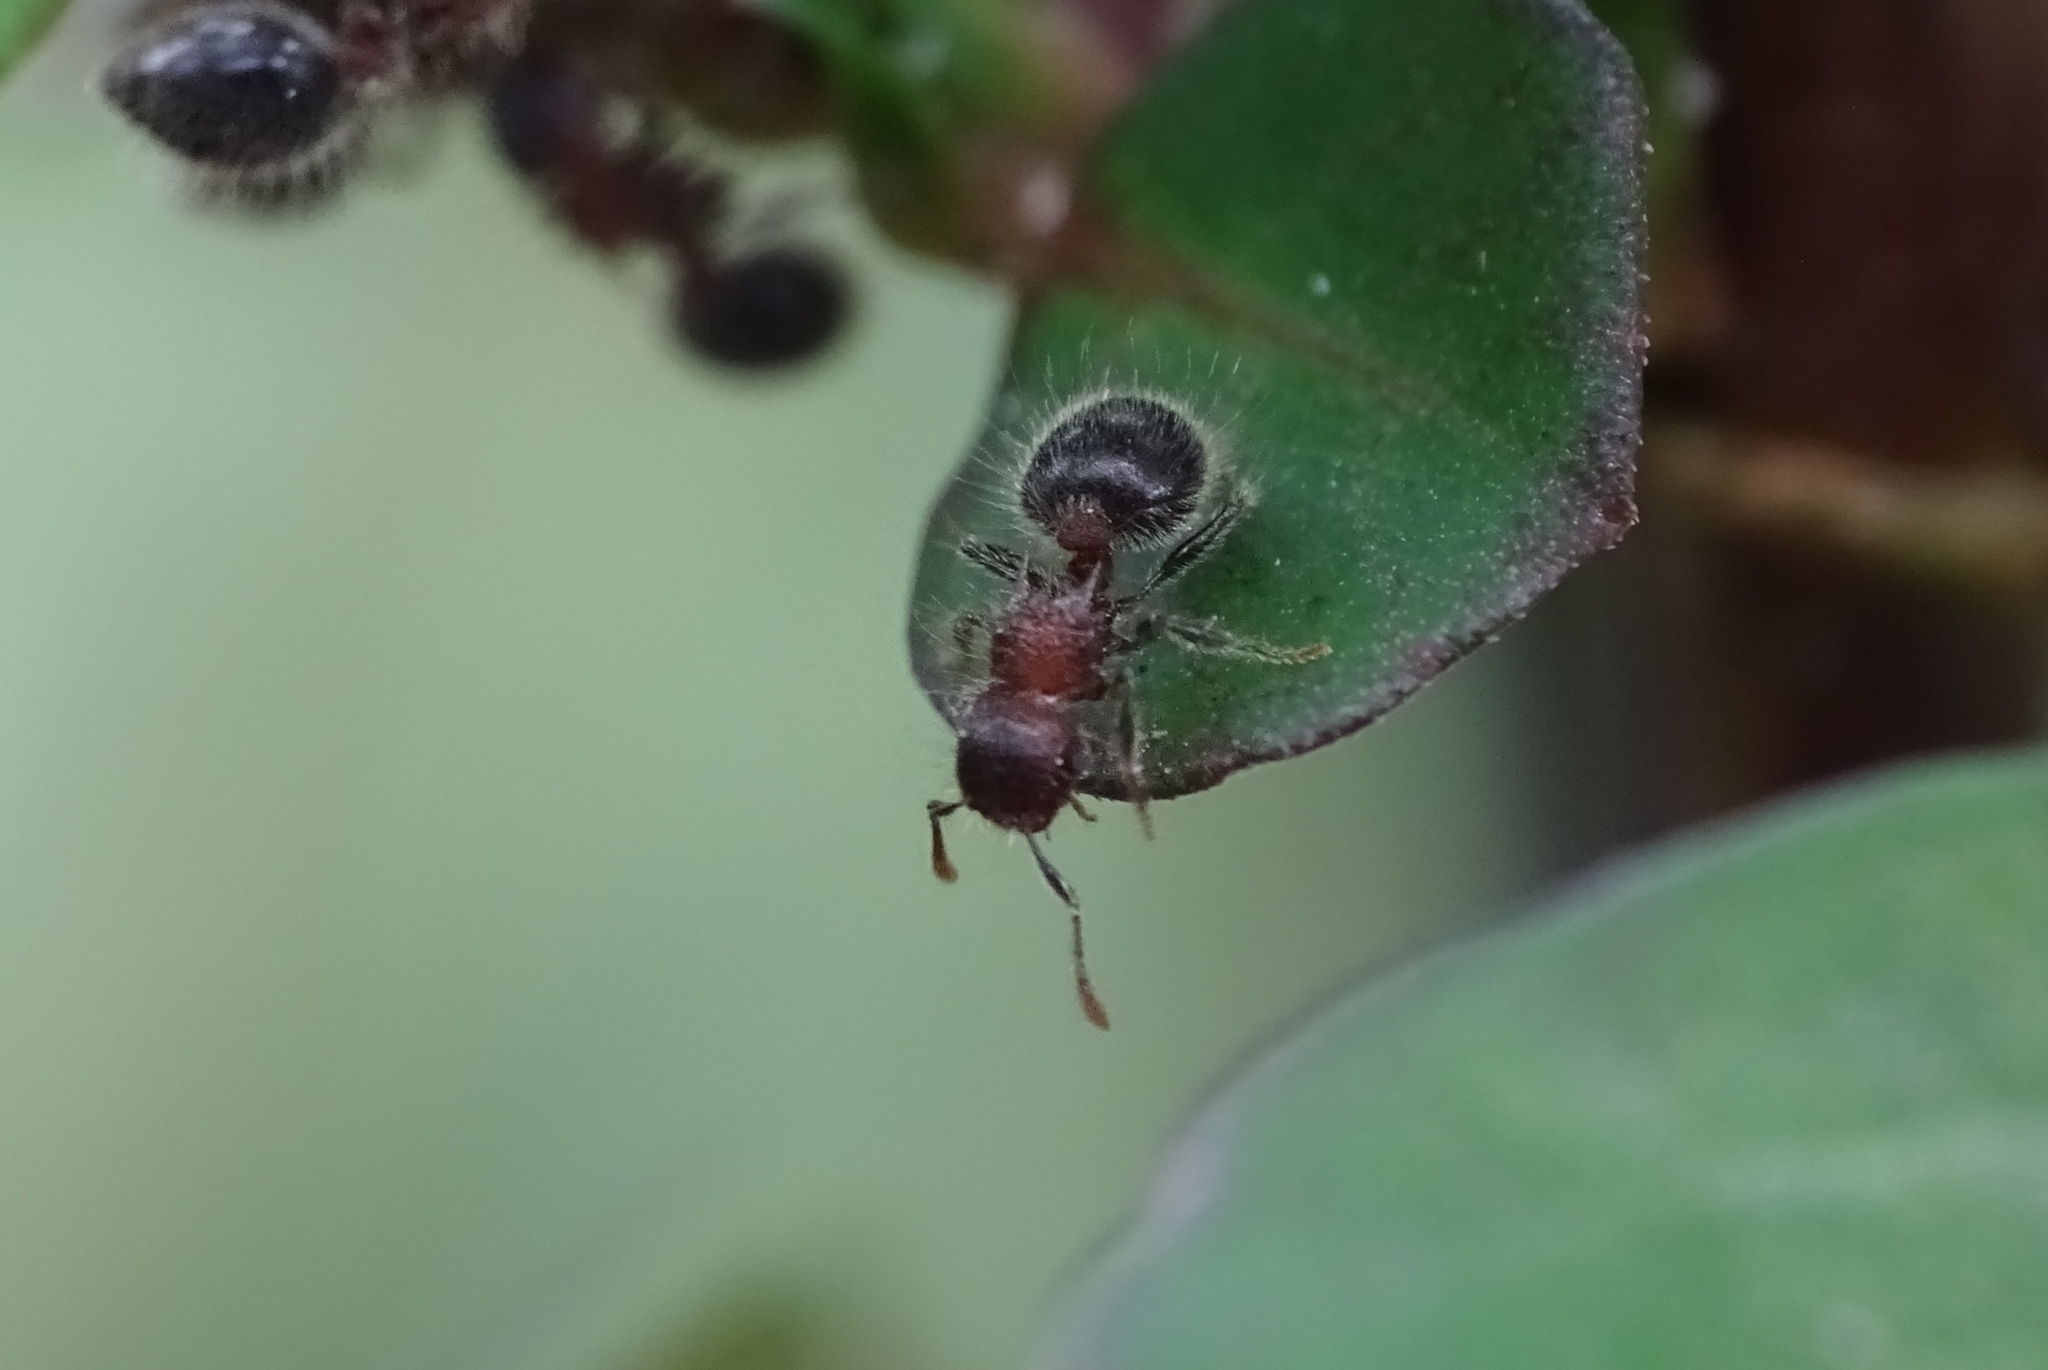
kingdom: Animalia
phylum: Arthropoda
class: Insecta
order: Hymenoptera
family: Formicidae
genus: Meranoplus
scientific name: Meranoplus bicolor
